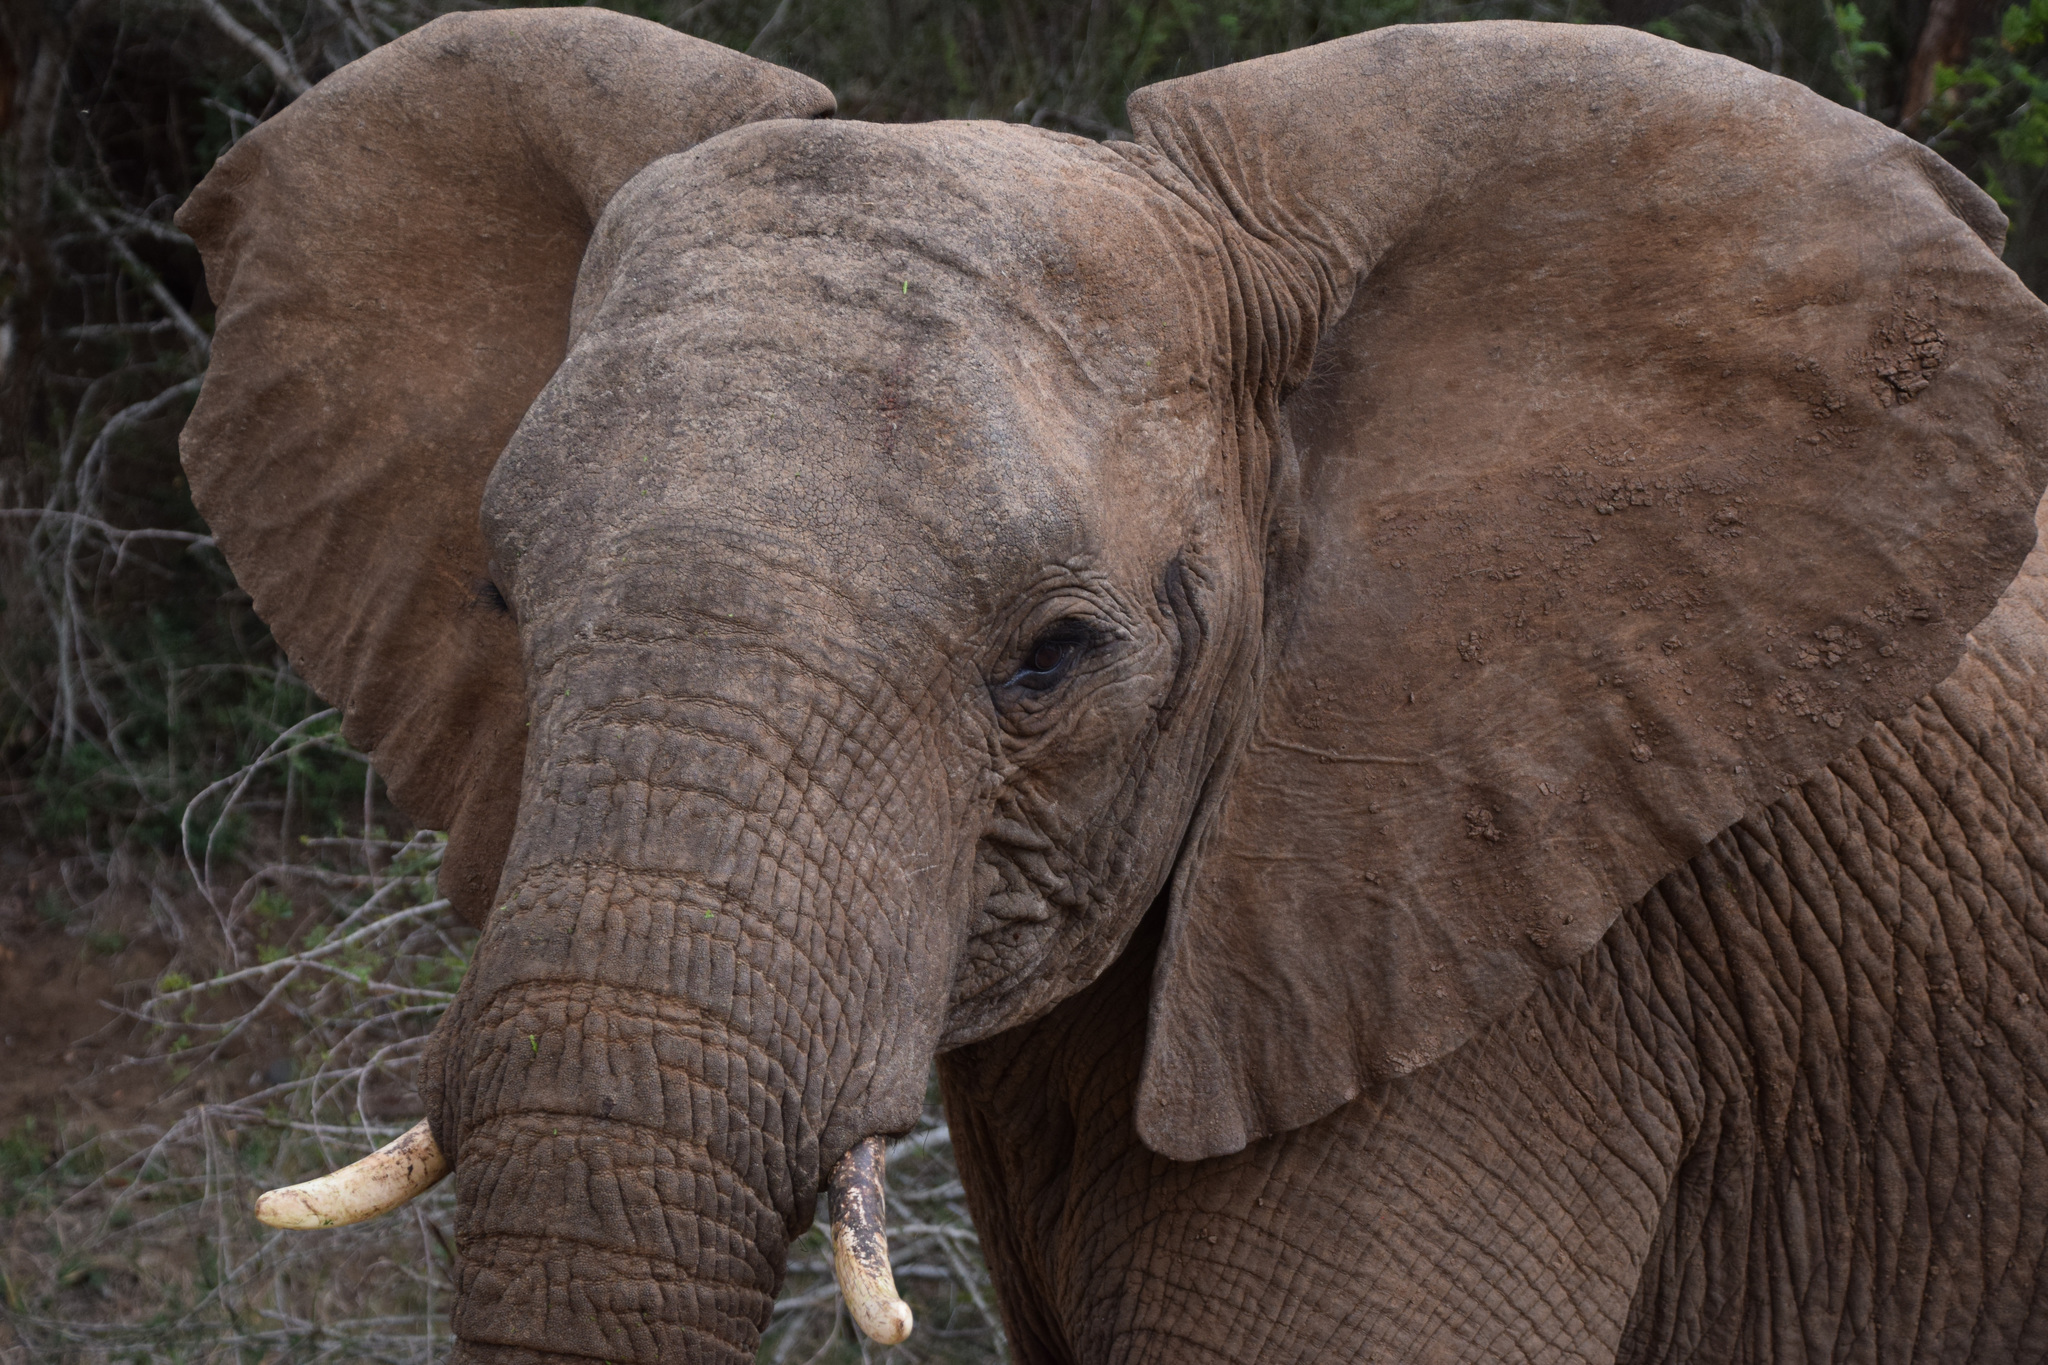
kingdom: Animalia
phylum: Chordata
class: Mammalia
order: Proboscidea
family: Elephantidae
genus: Loxodonta
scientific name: Loxodonta africana
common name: African elephant
